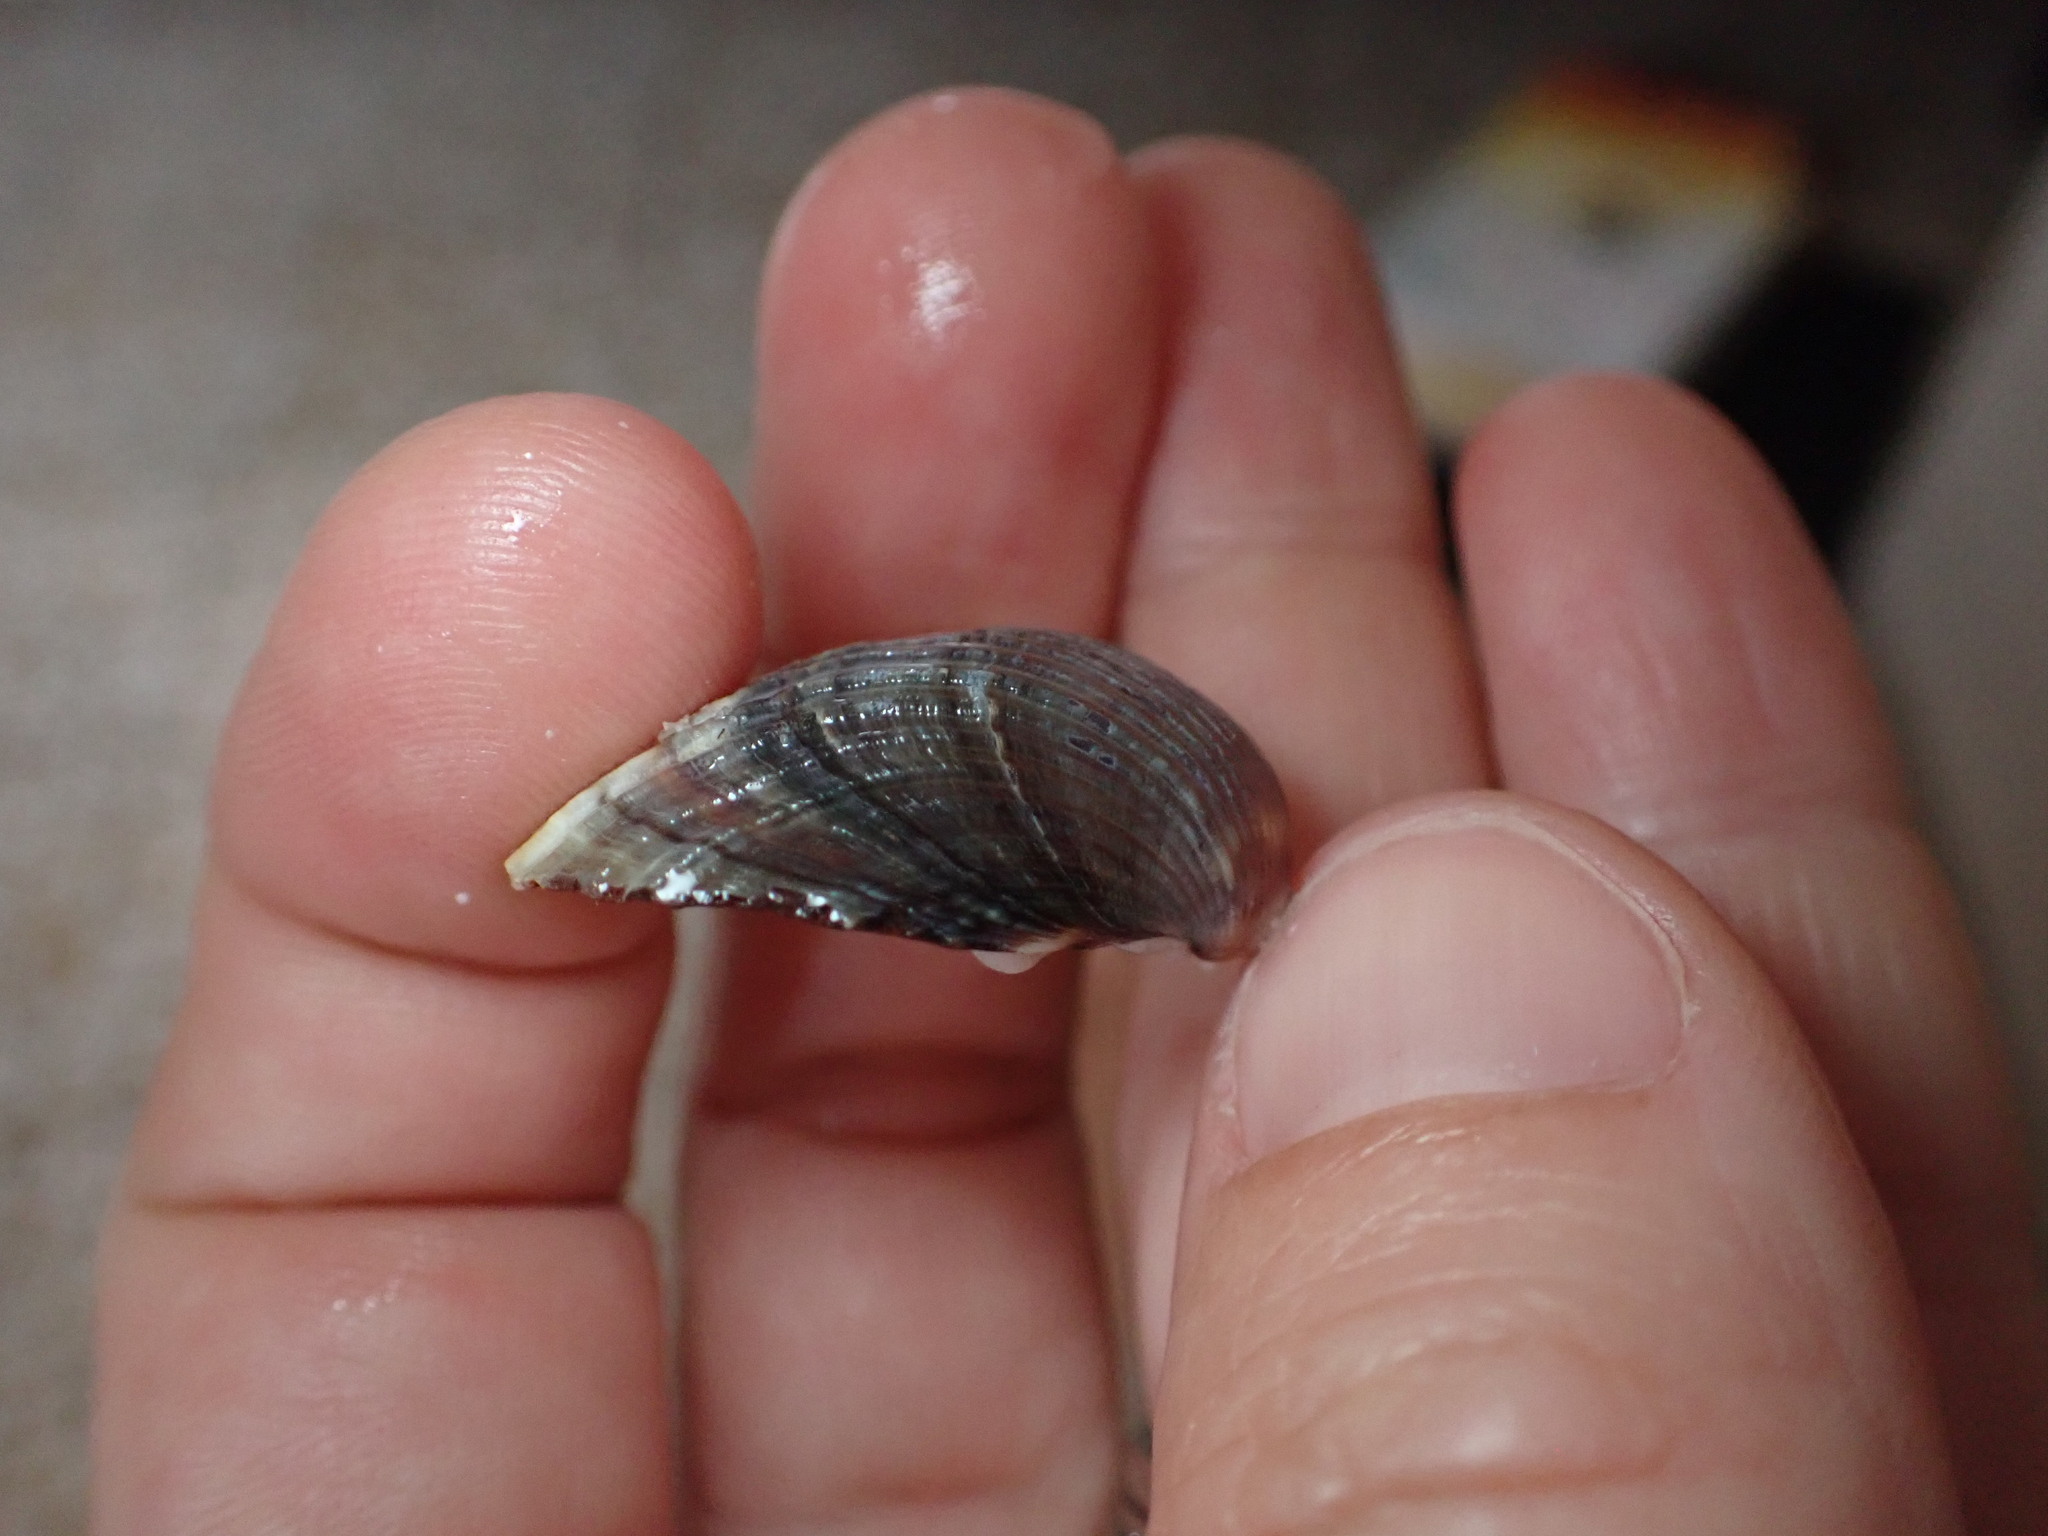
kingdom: Animalia
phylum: Mollusca
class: Bivalvia
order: Cardiida
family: Cardiidae
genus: Cerastoderma
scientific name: Cerastoderma glaucum
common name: Lagoon cockle
